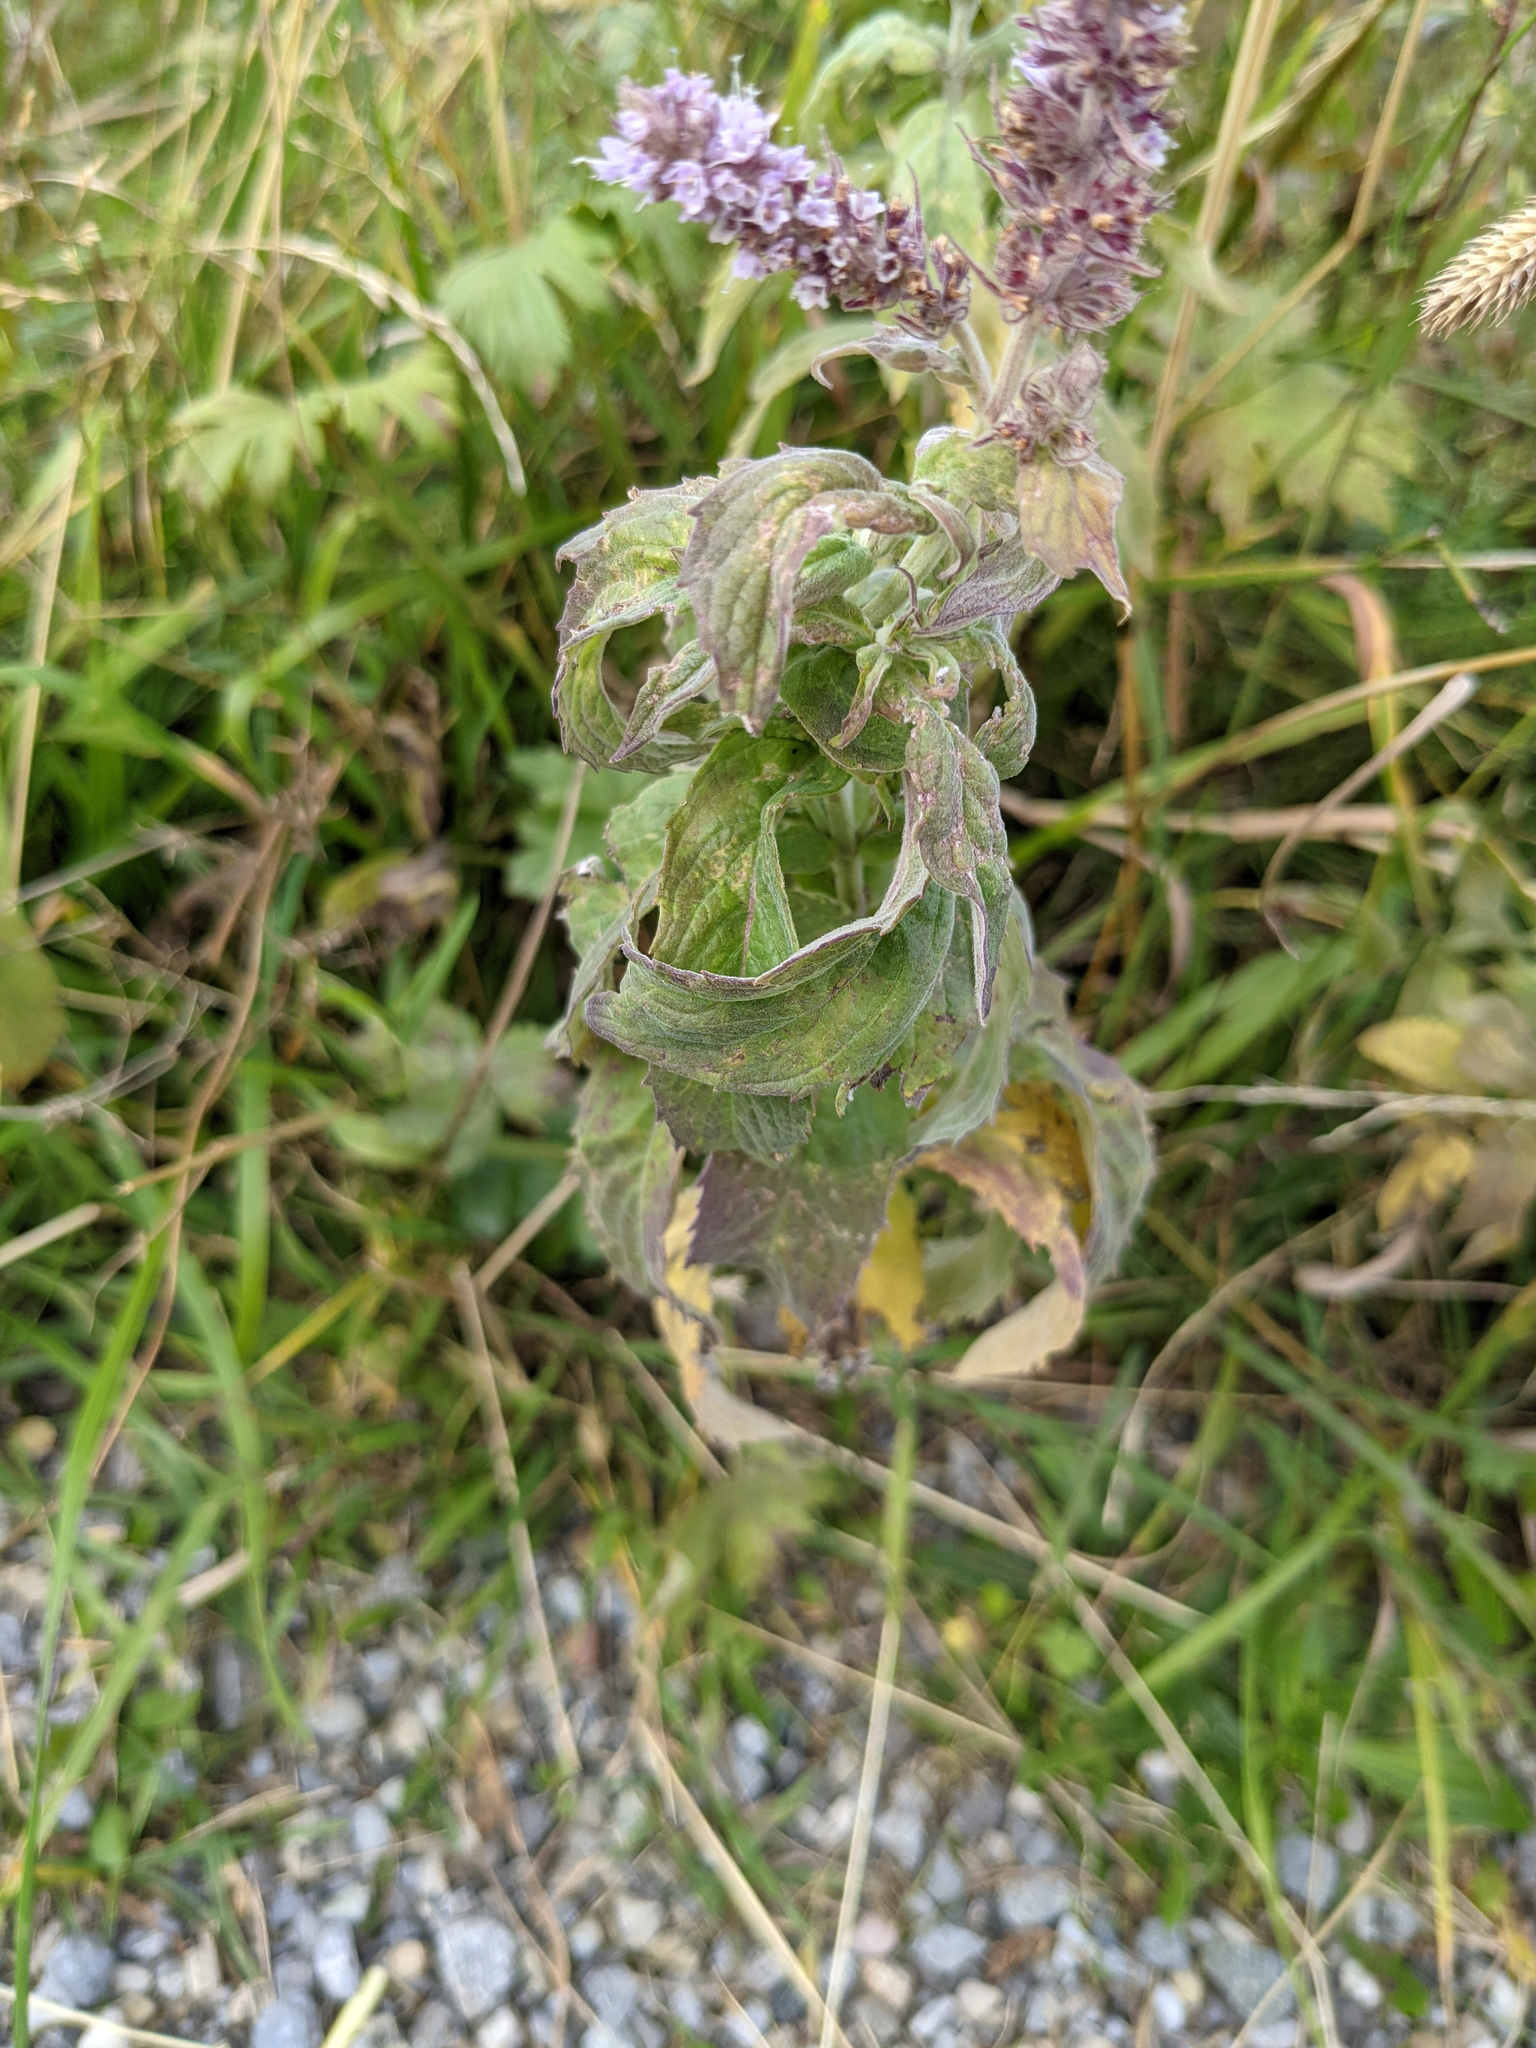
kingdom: Plantae
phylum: Tracheophyta
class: Magnoliopsida
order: Lamiales
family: Lamiaceae
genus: Mentha
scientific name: Mentha longifolia
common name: Horse mint
